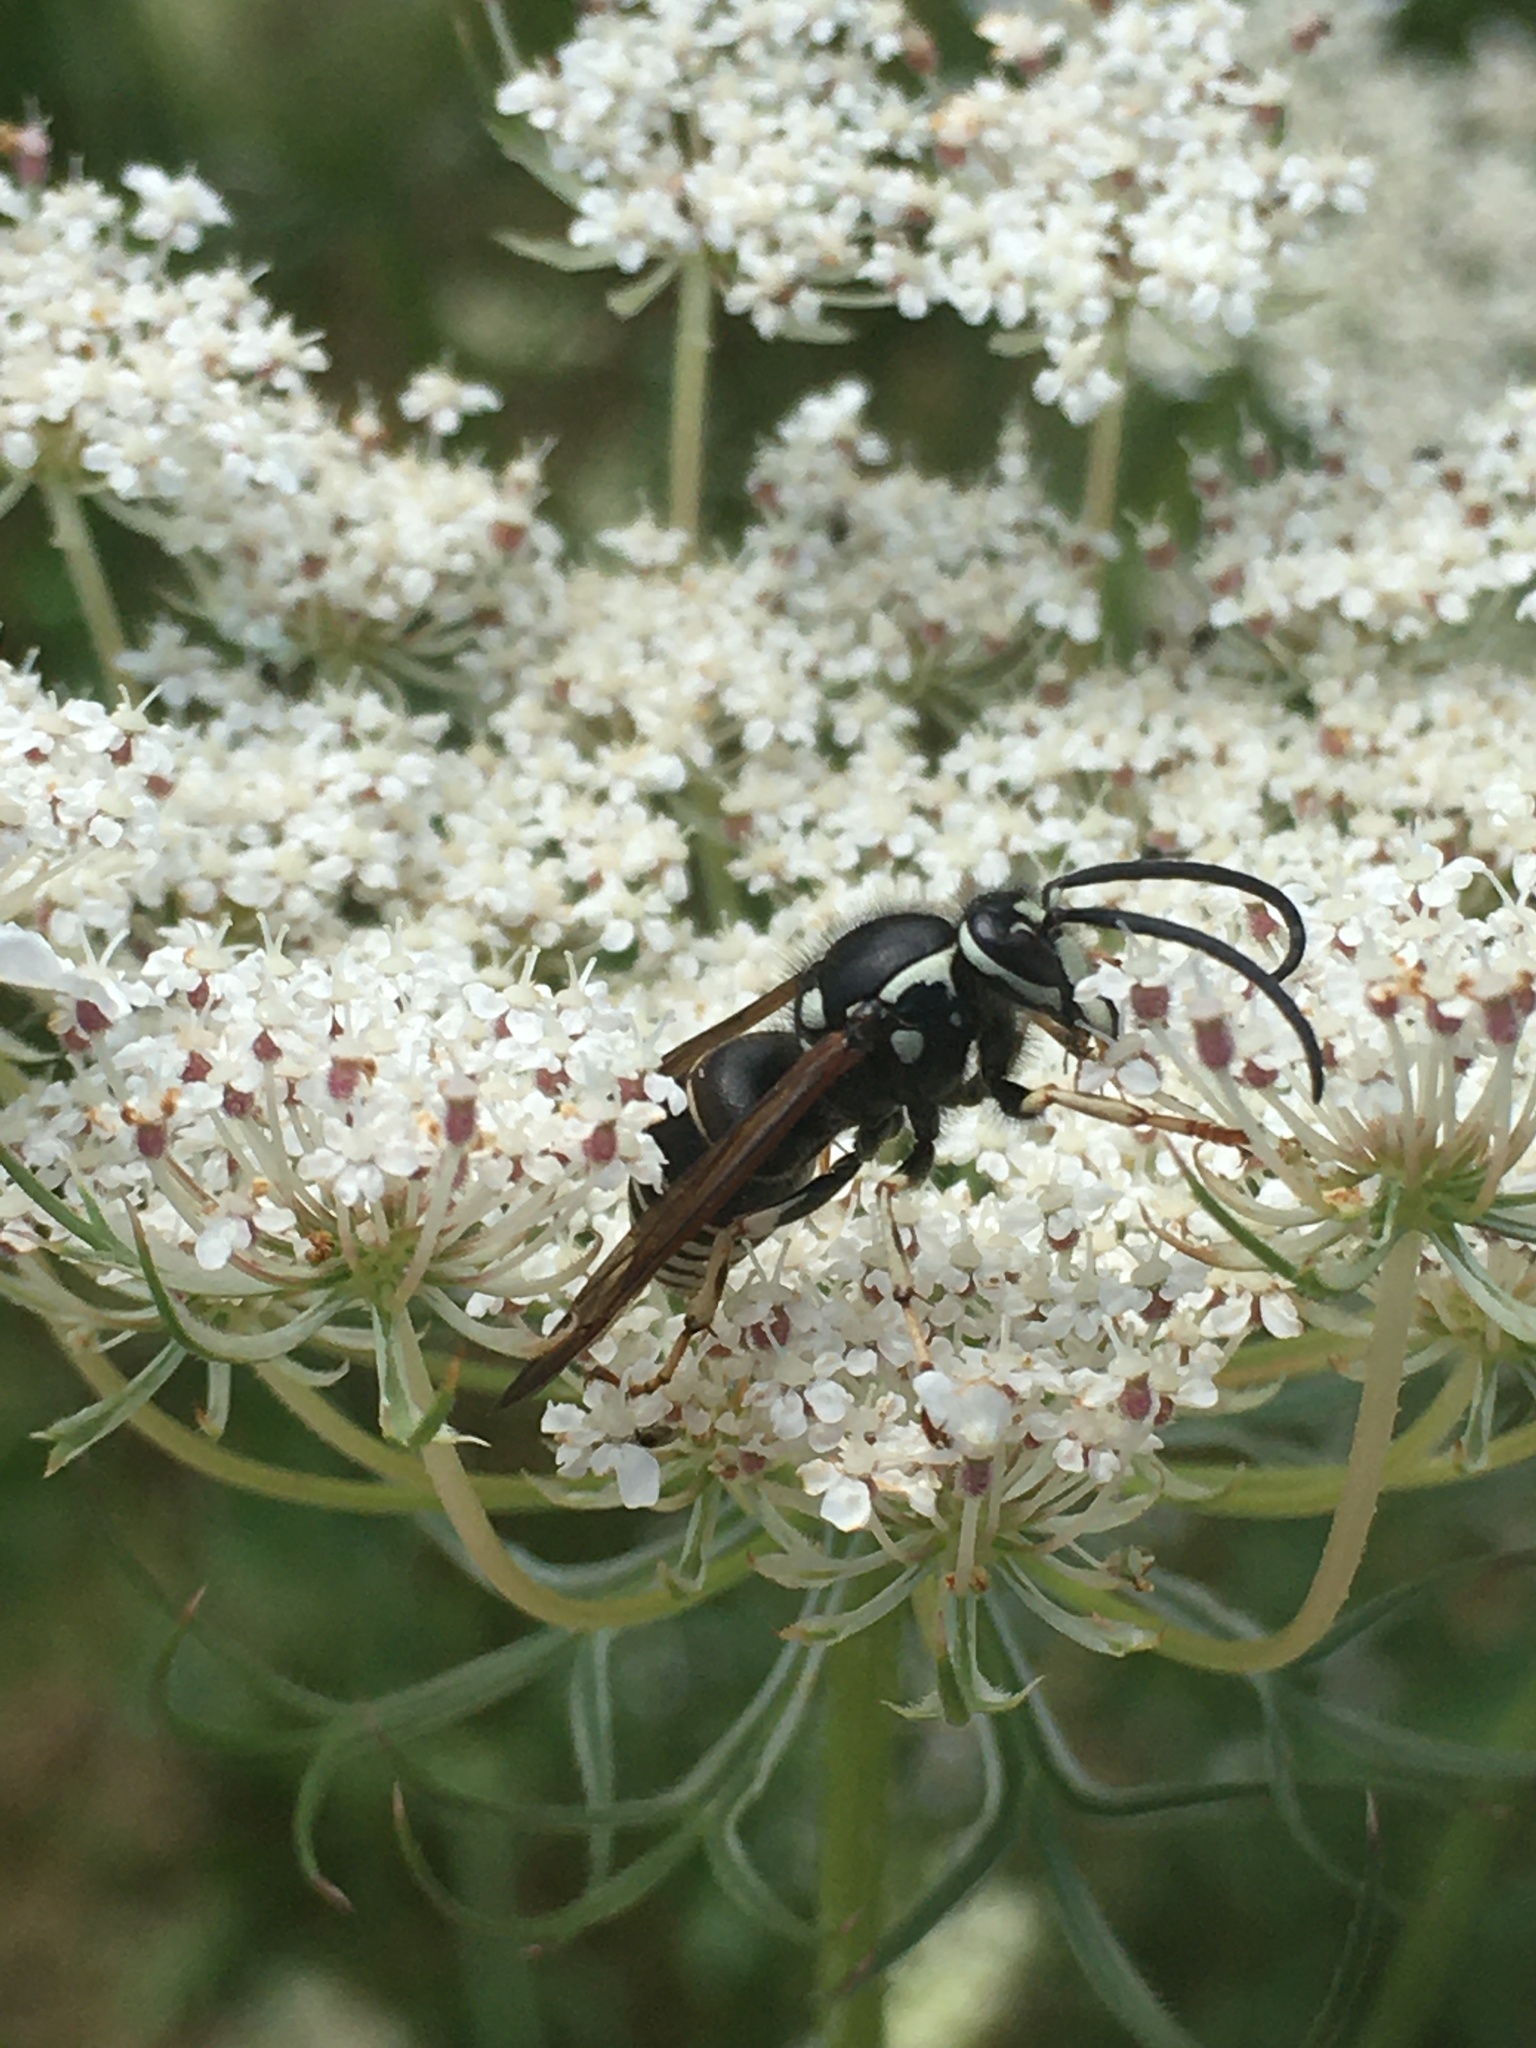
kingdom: Animalia
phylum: Arthropoda
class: Insecta
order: Hymenoptera
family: Vespidae
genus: Dolichovespula
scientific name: Dolichovespula adulterina
